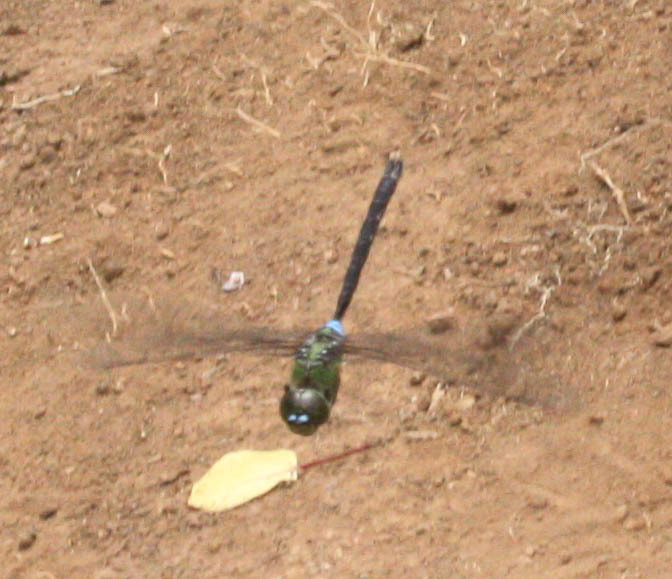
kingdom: Animalia
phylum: Arthropoda
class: Insecta
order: Odonata
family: Aeshnidae
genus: Anax
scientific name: Anax strenuus
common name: Giant hawaiian darner
